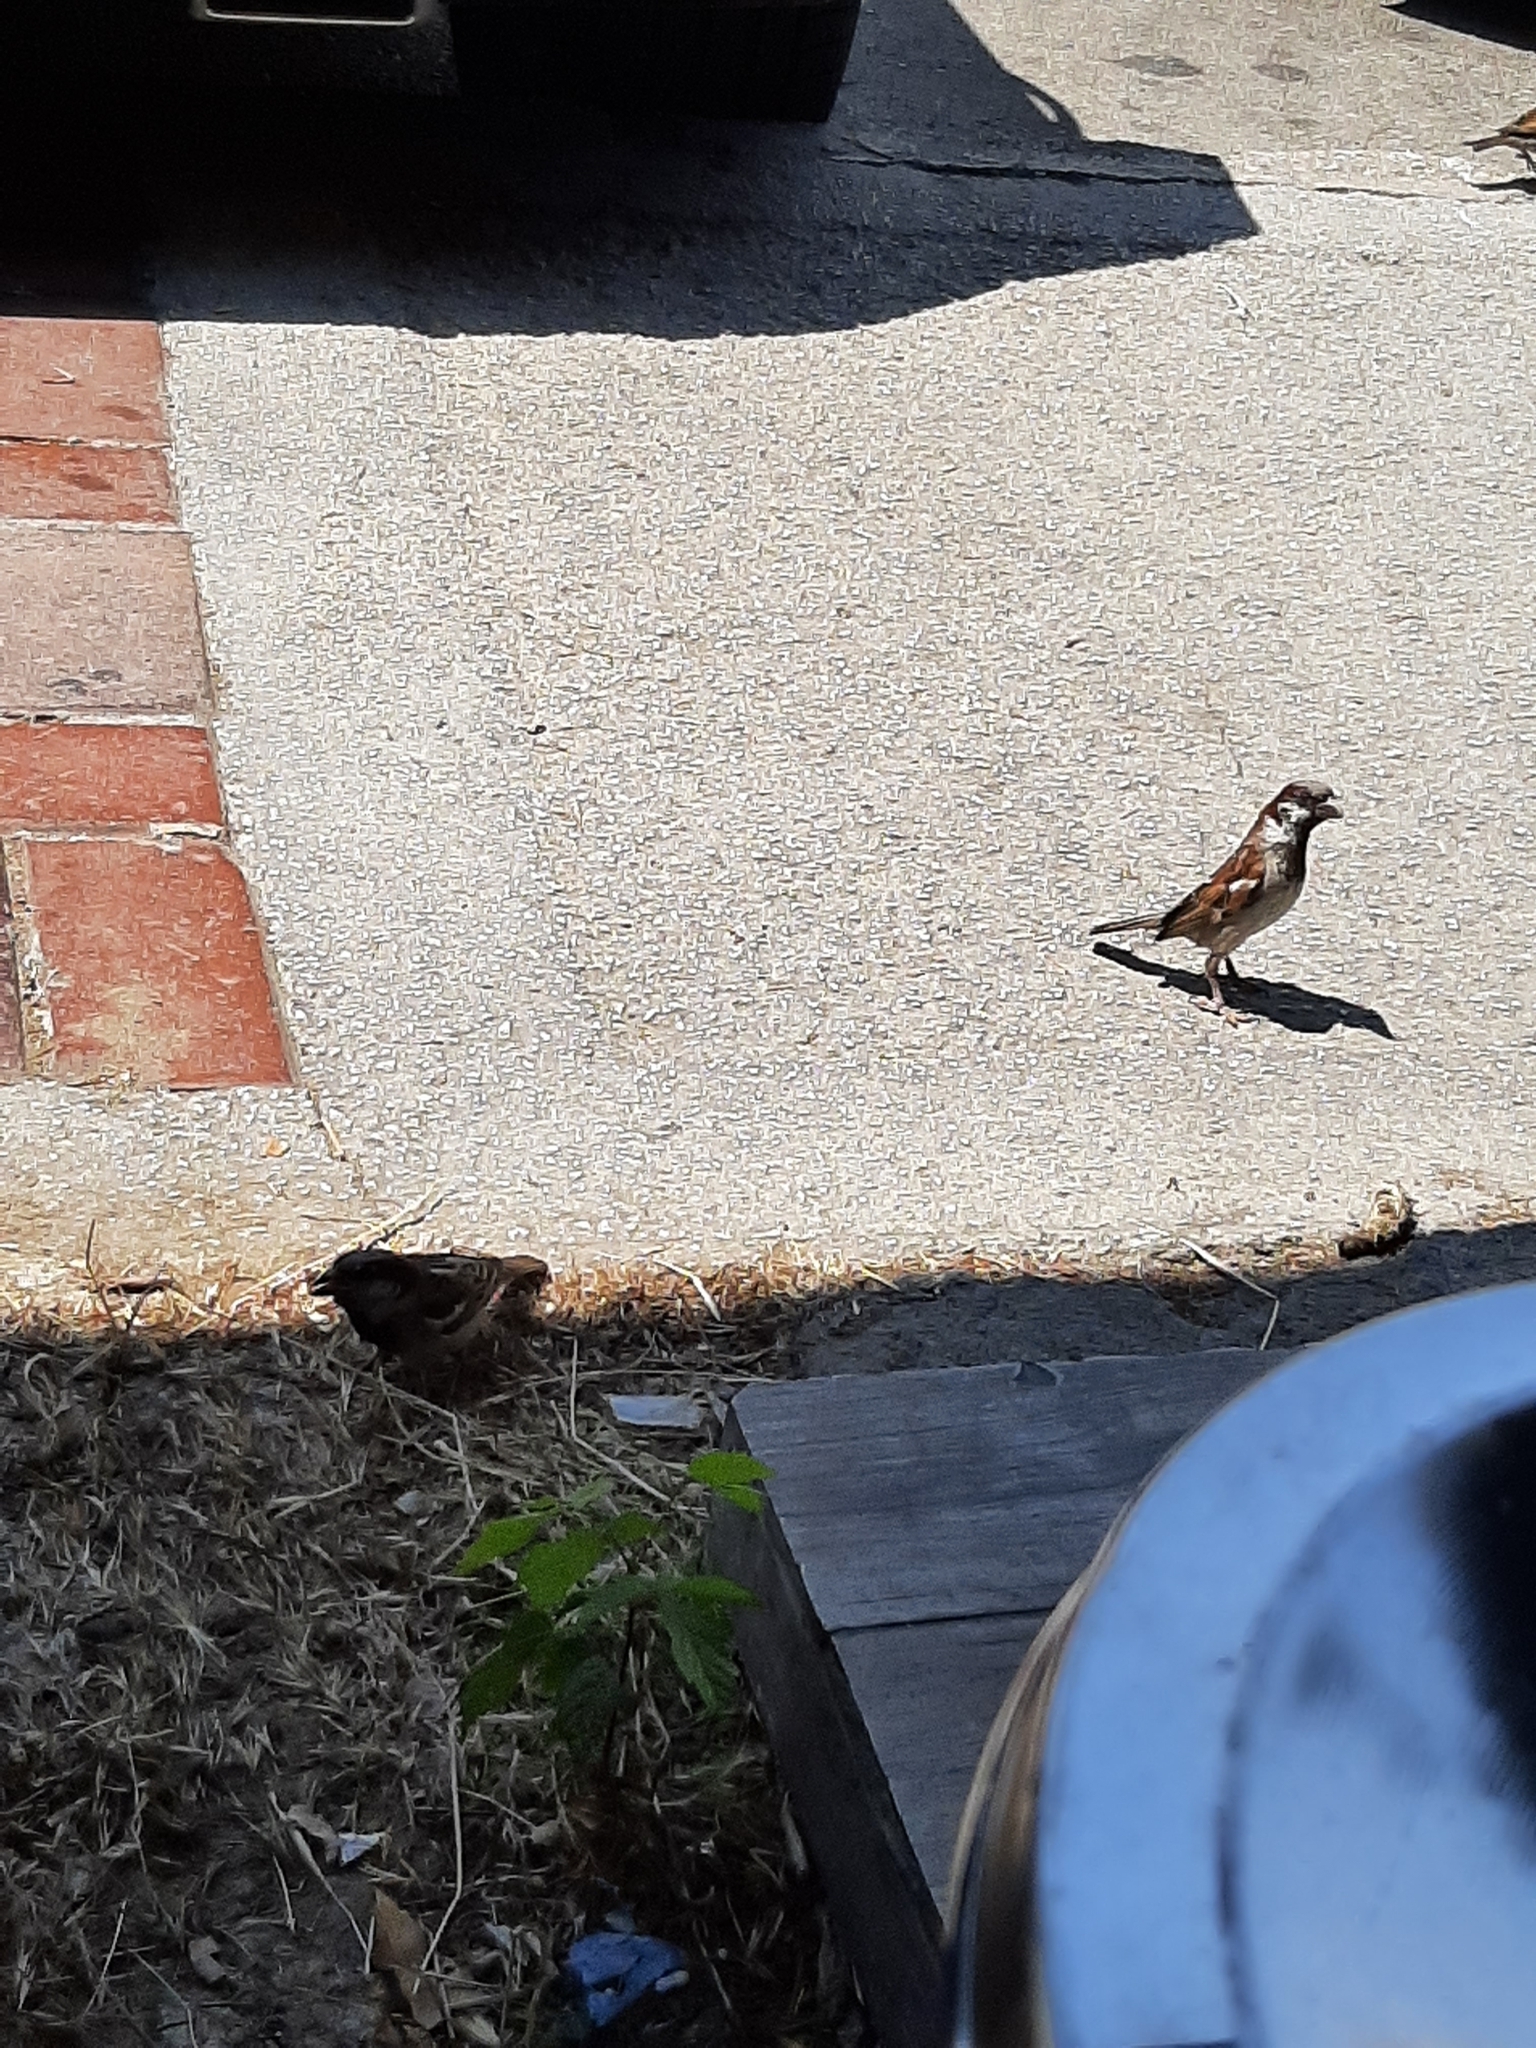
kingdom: Animalia
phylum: Chordata
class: Aves
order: Passeriformes
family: Passeridae
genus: Passer
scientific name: Passer domesticus
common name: House sparrow
